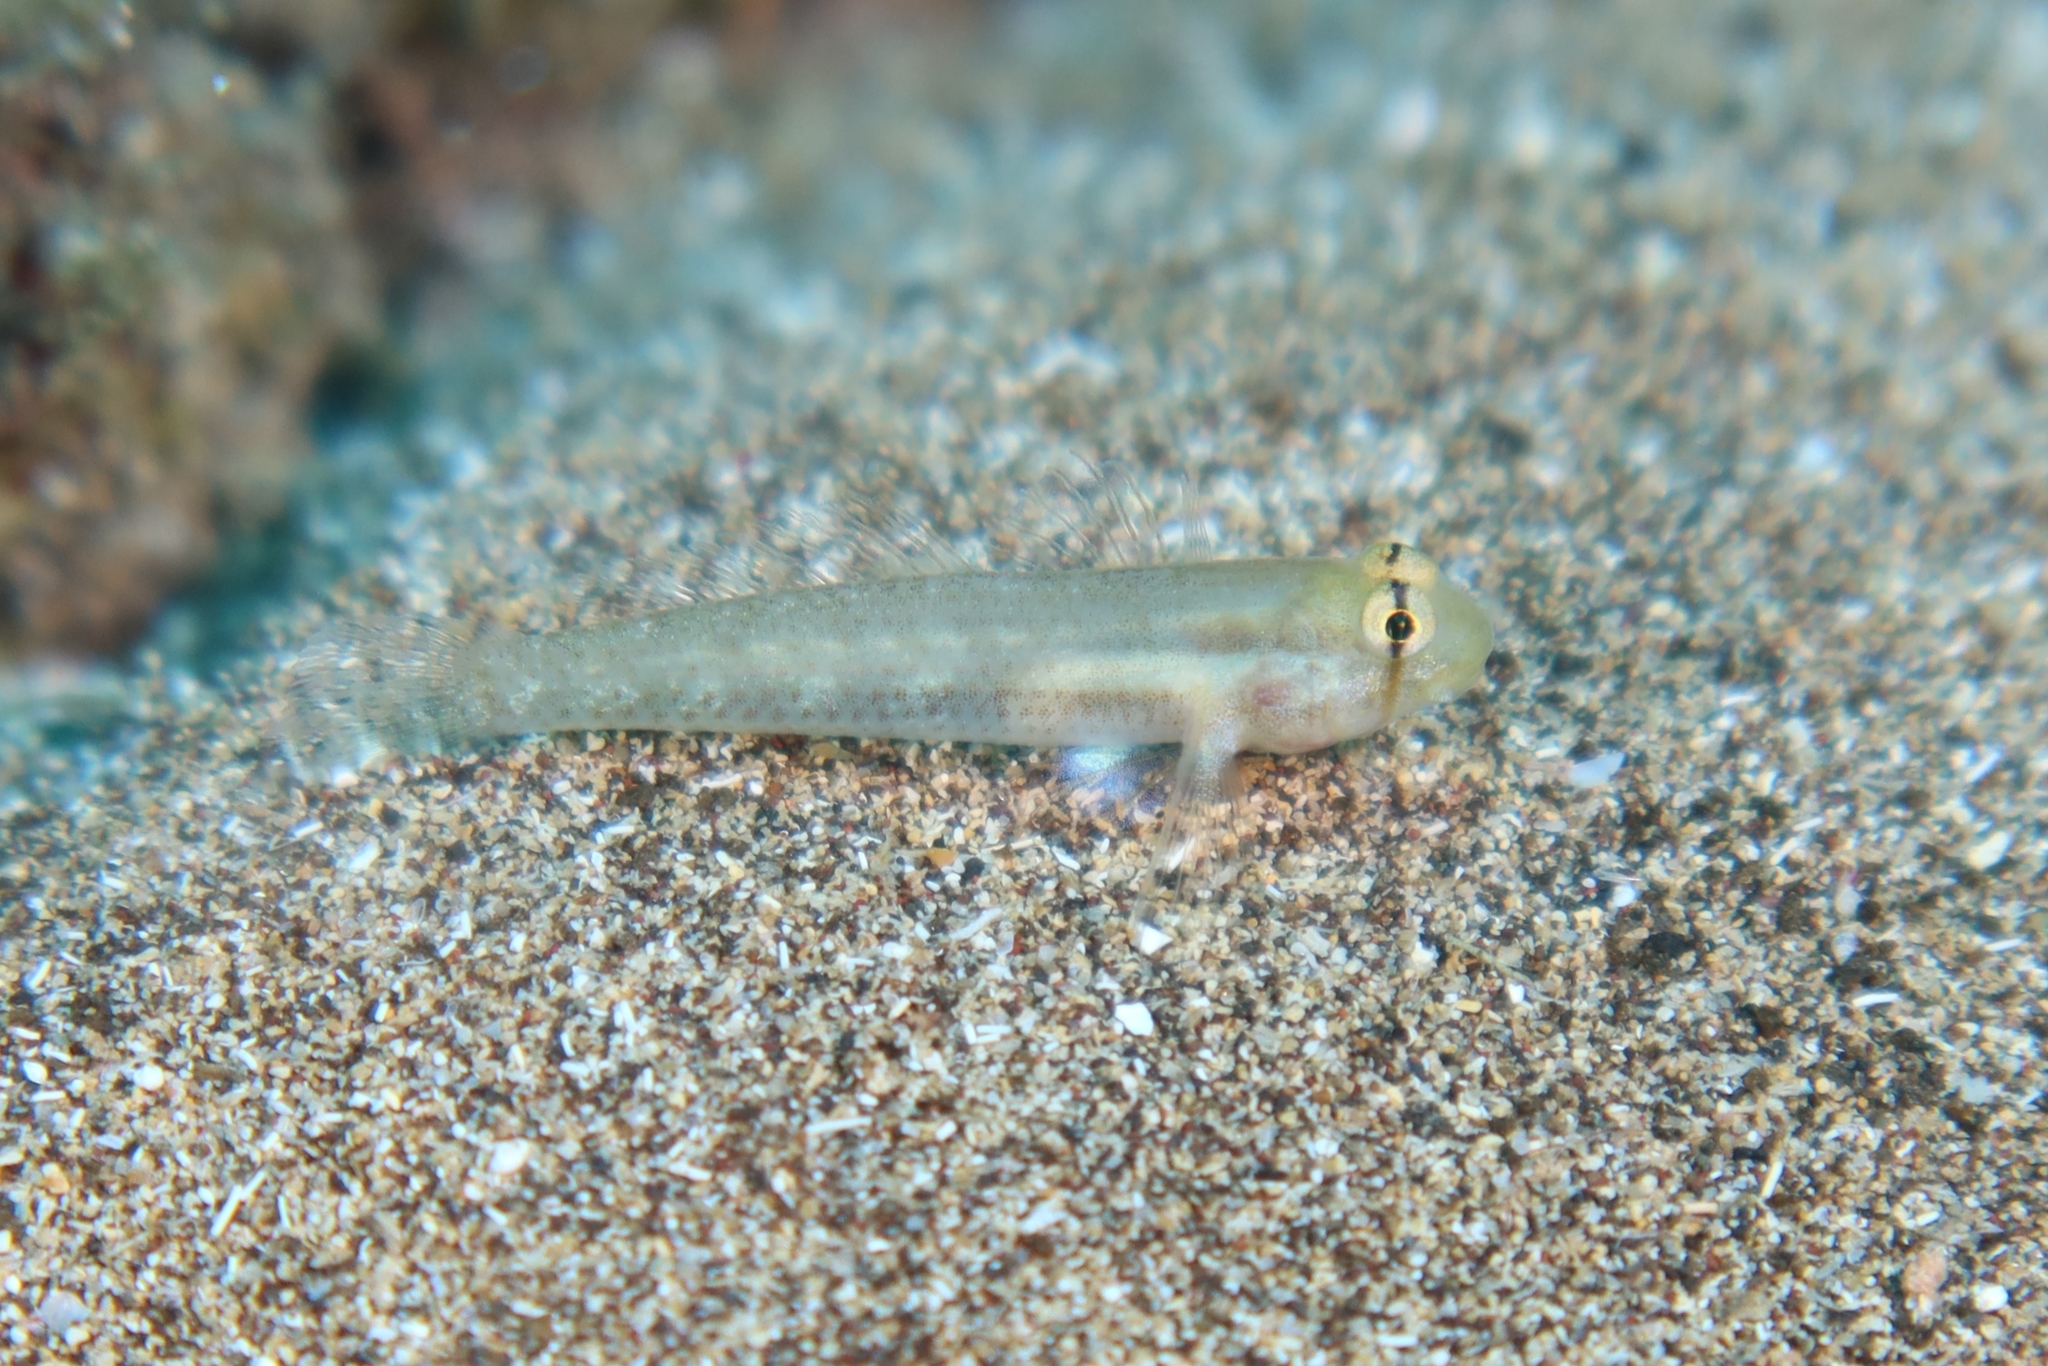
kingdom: Animalia
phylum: Chordata
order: Perciformes
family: Gobiidae
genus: Gnatholepis
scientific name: Gnatholepis thompsoni
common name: Goldspot goby
